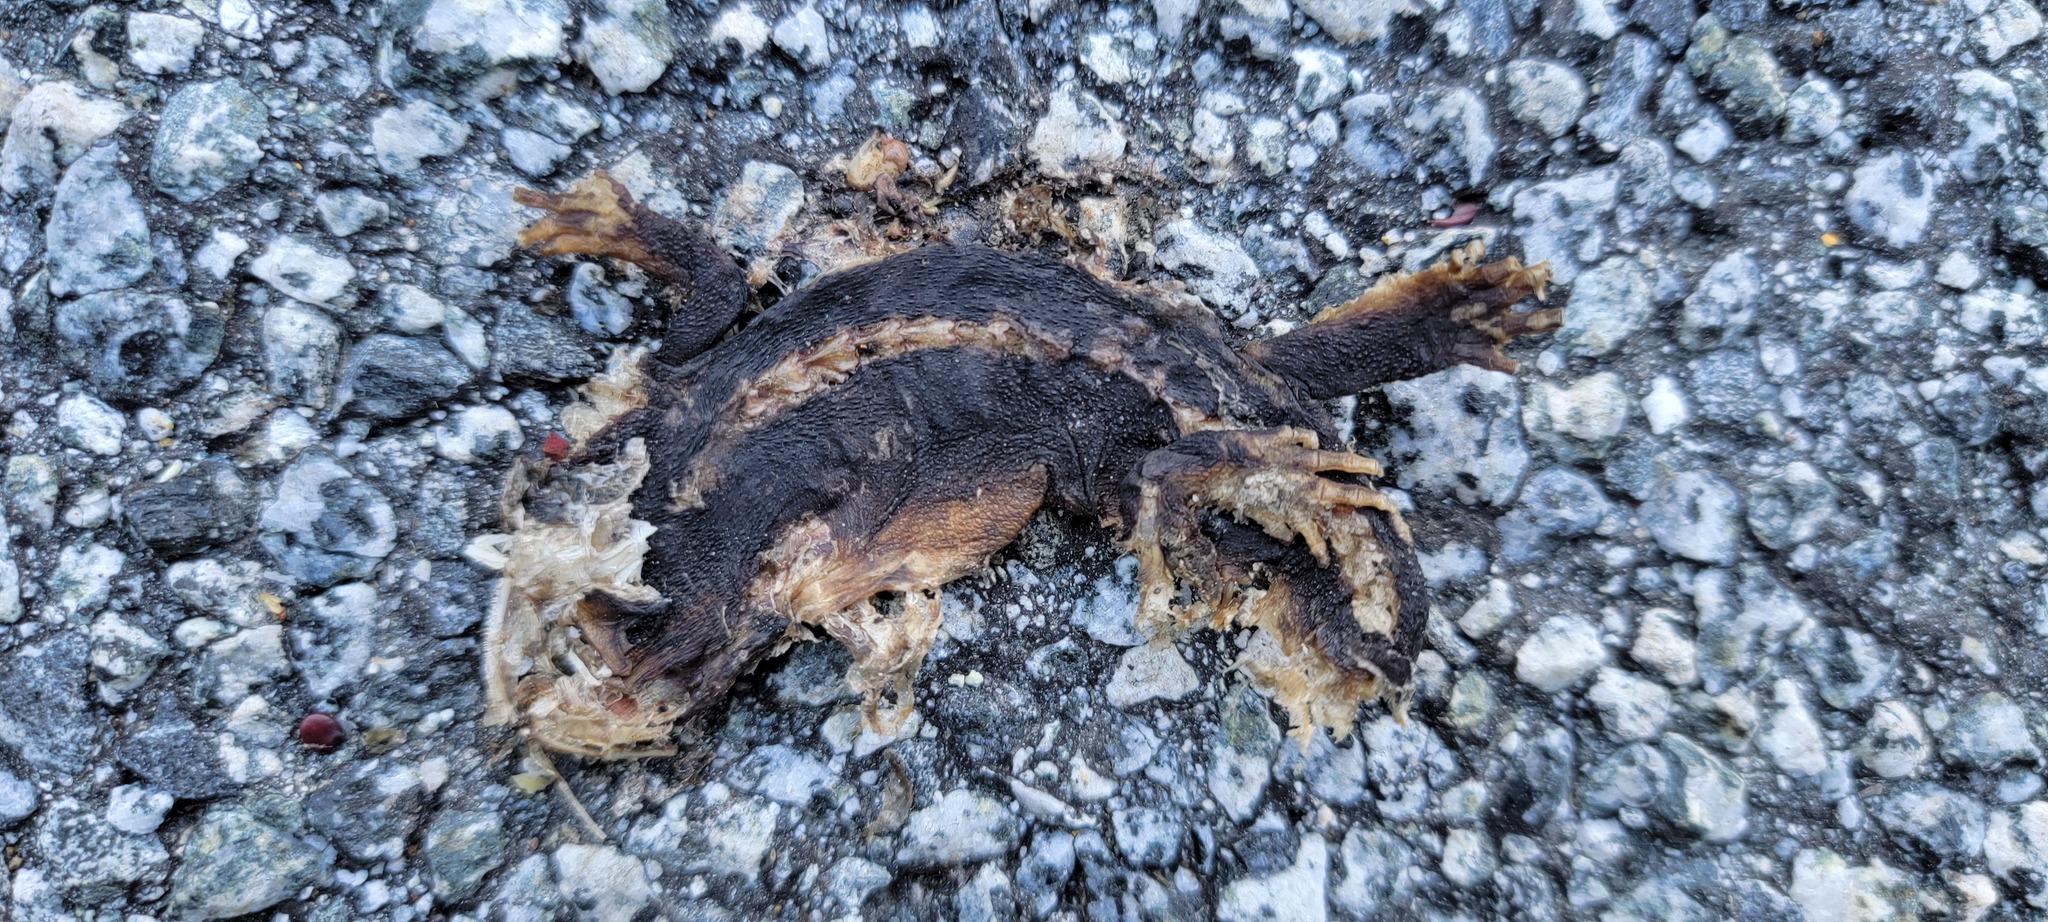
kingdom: Animalia
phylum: Chordata
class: Amphibia
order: Caudata
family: Salamandridae
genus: Taricha
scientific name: Taricha
